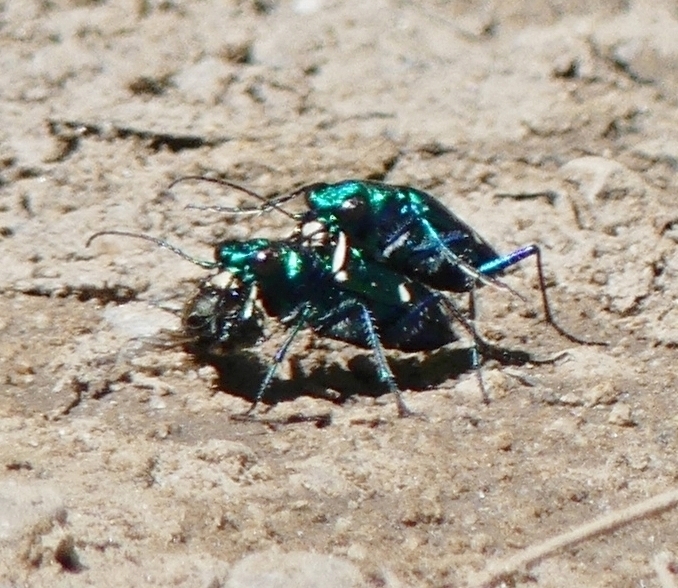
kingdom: Animalia
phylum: Arthropoda
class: Insecta
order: Coleoptera
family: Carabidae
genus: Cicindela
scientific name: Cicindela sexguttata
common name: Six-spotted tiger beetle
